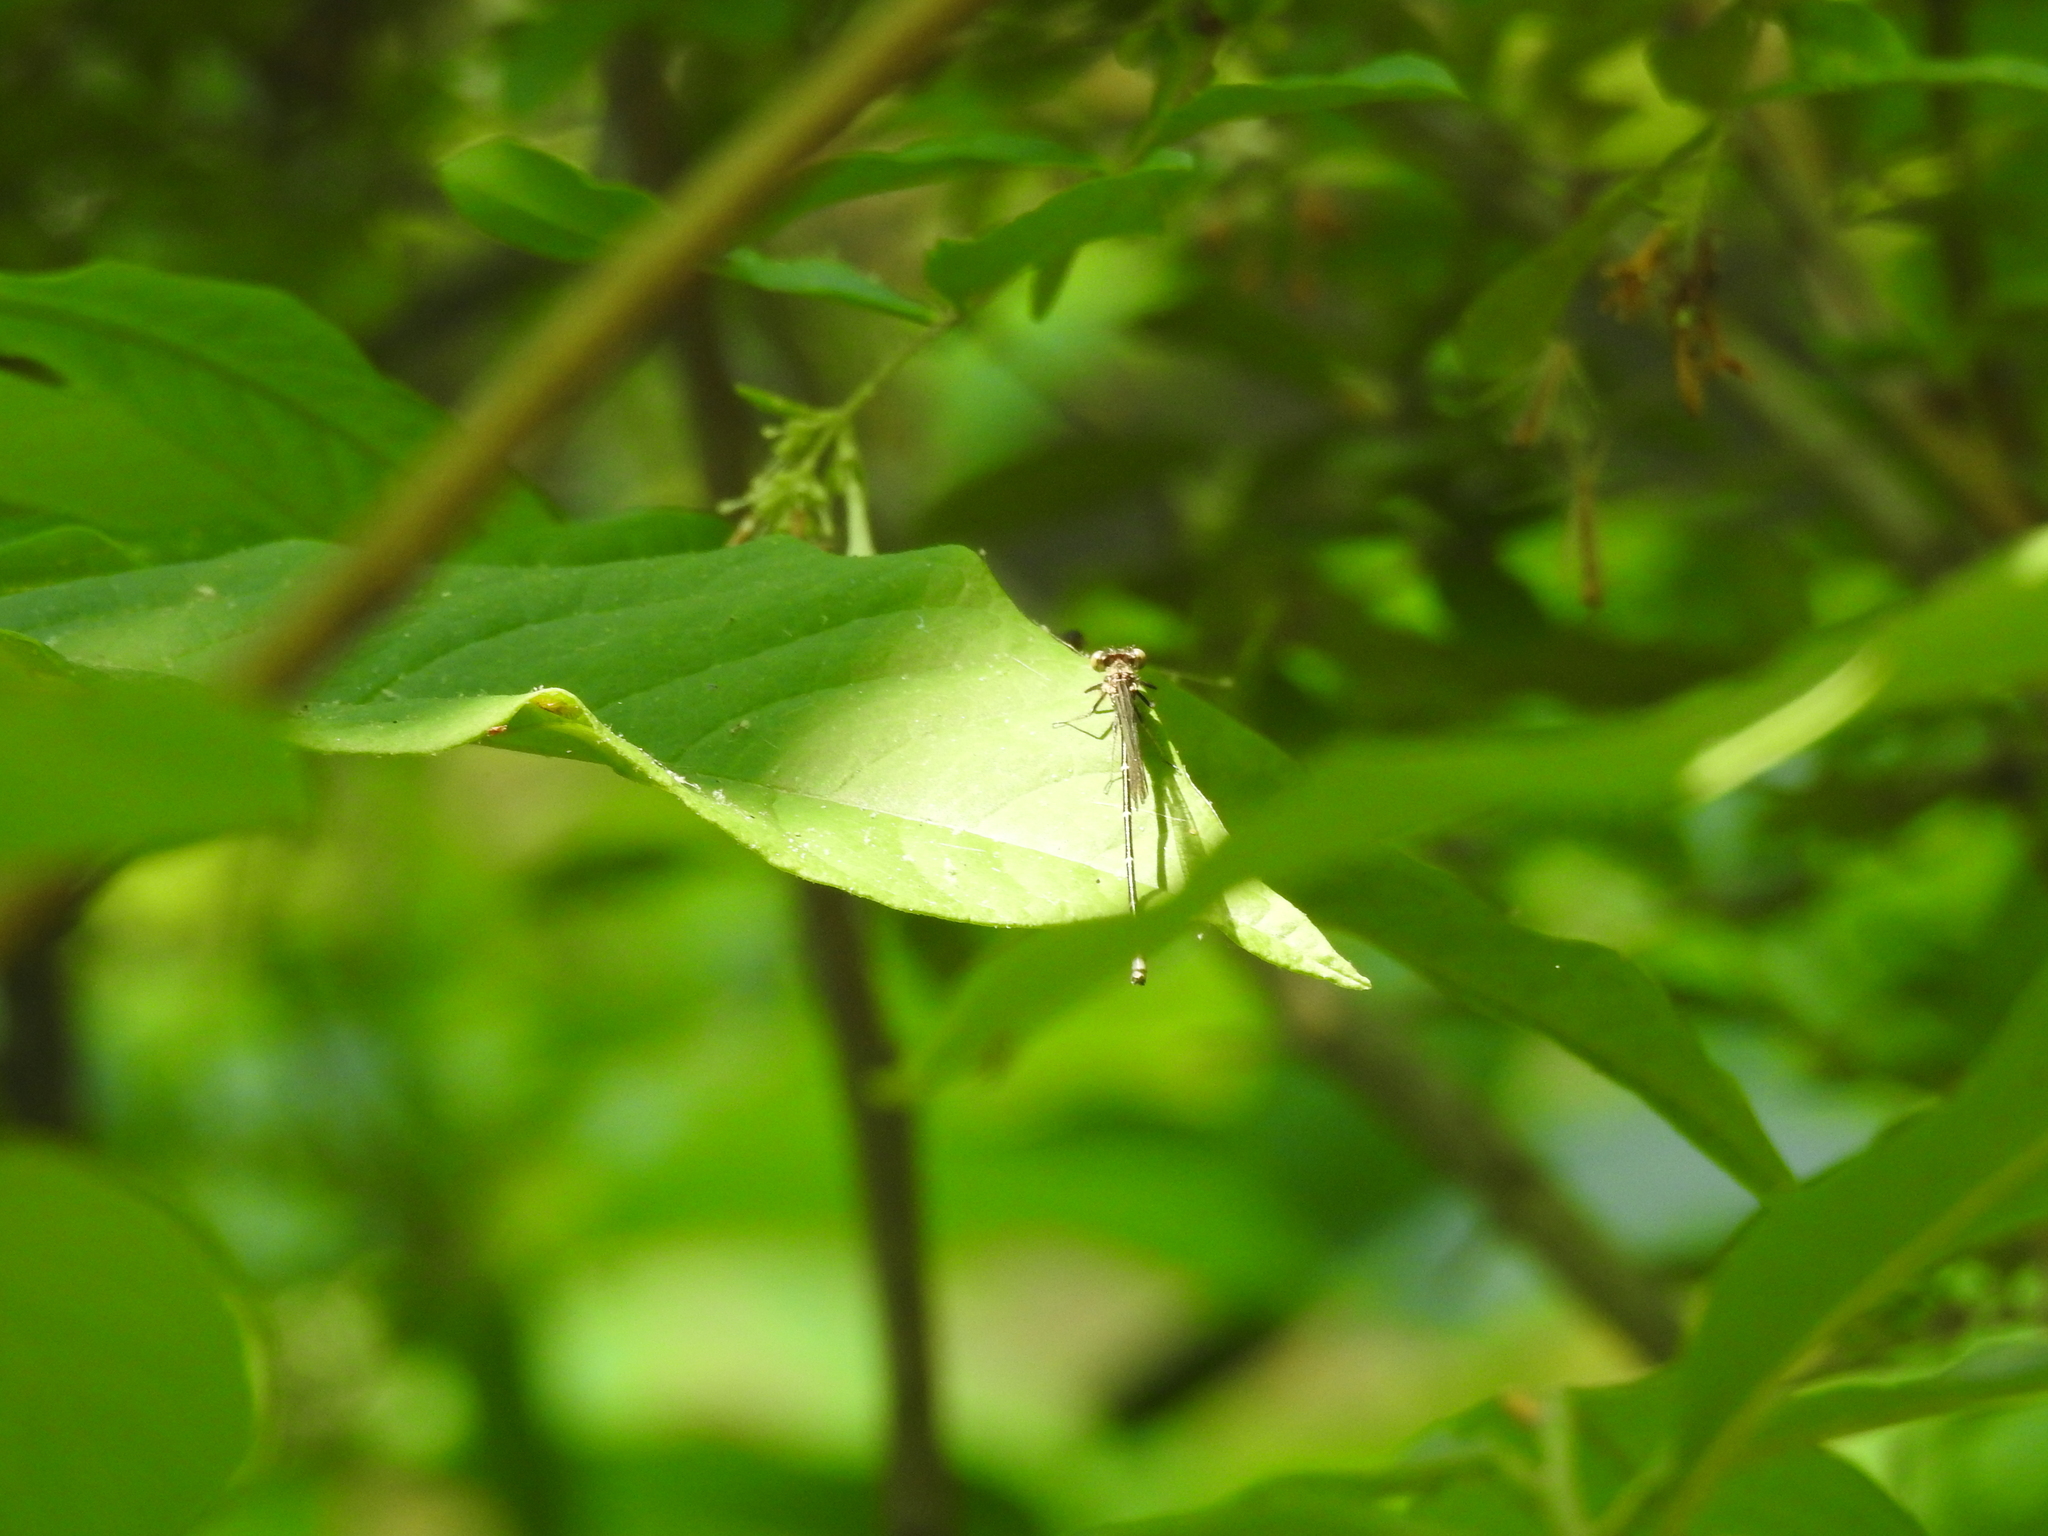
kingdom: Animalia
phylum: Arthropoda
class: Insecta
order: Odonata
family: Coenagrionidae
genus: Argia
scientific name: Argia tibialis
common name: Blue-tipped dancer
